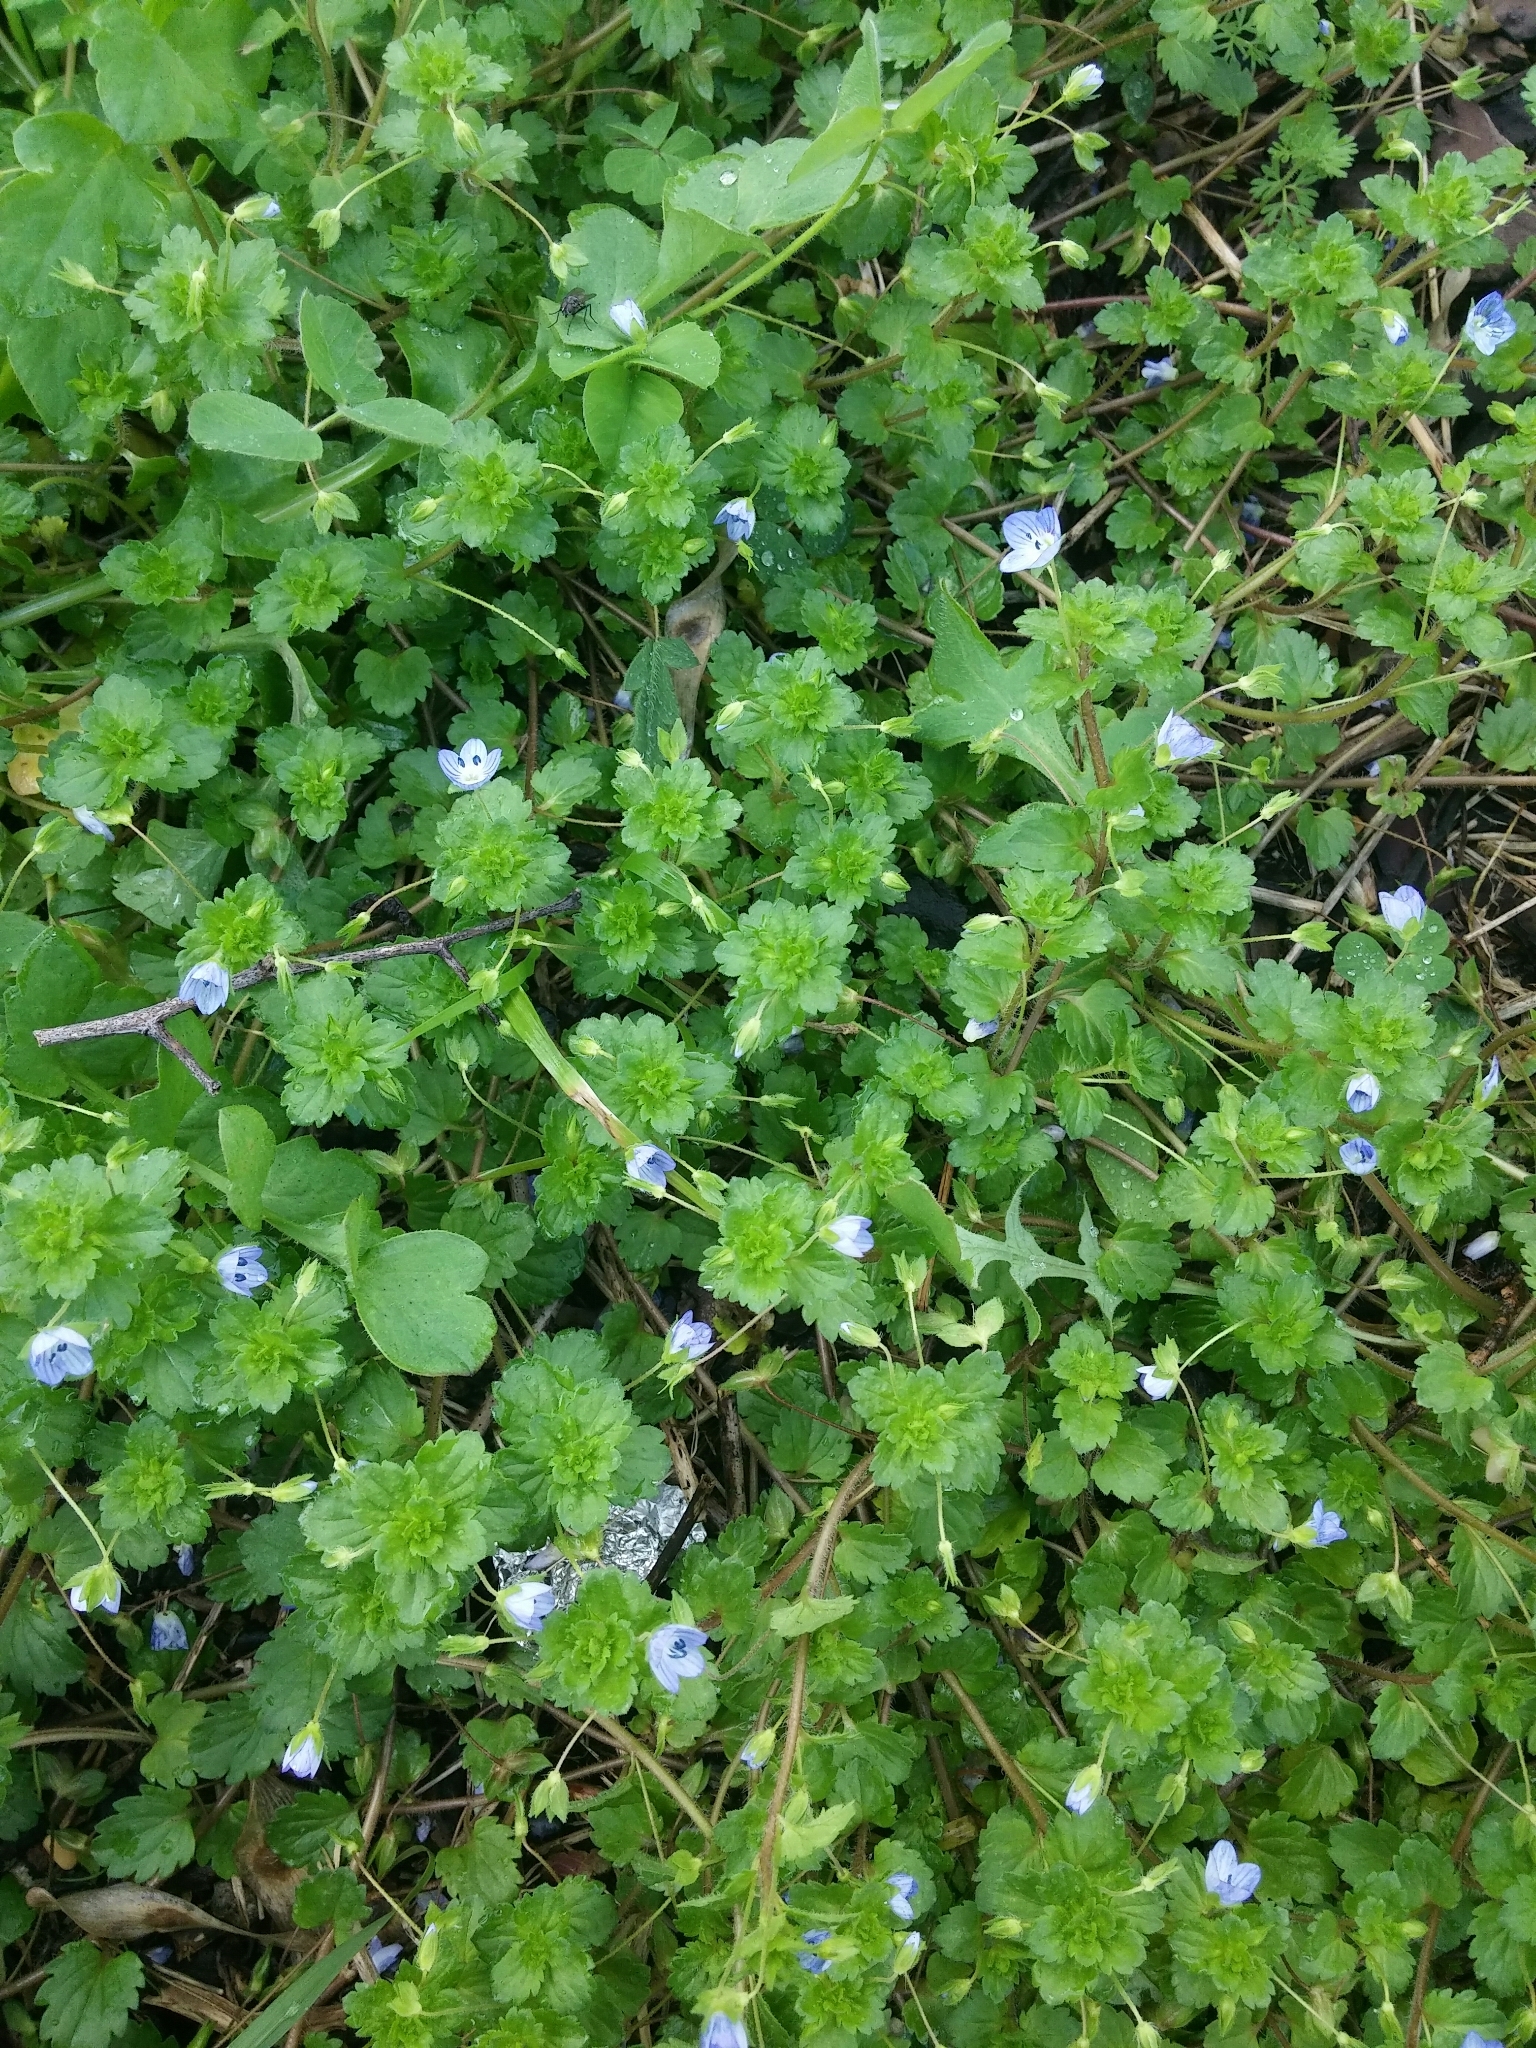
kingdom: Plantae
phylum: Tracheophyta
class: Magnoliopsida
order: Lamiales
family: Plantaginaceae
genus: Veronica
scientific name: Veronica persica
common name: Common field-speedwell
